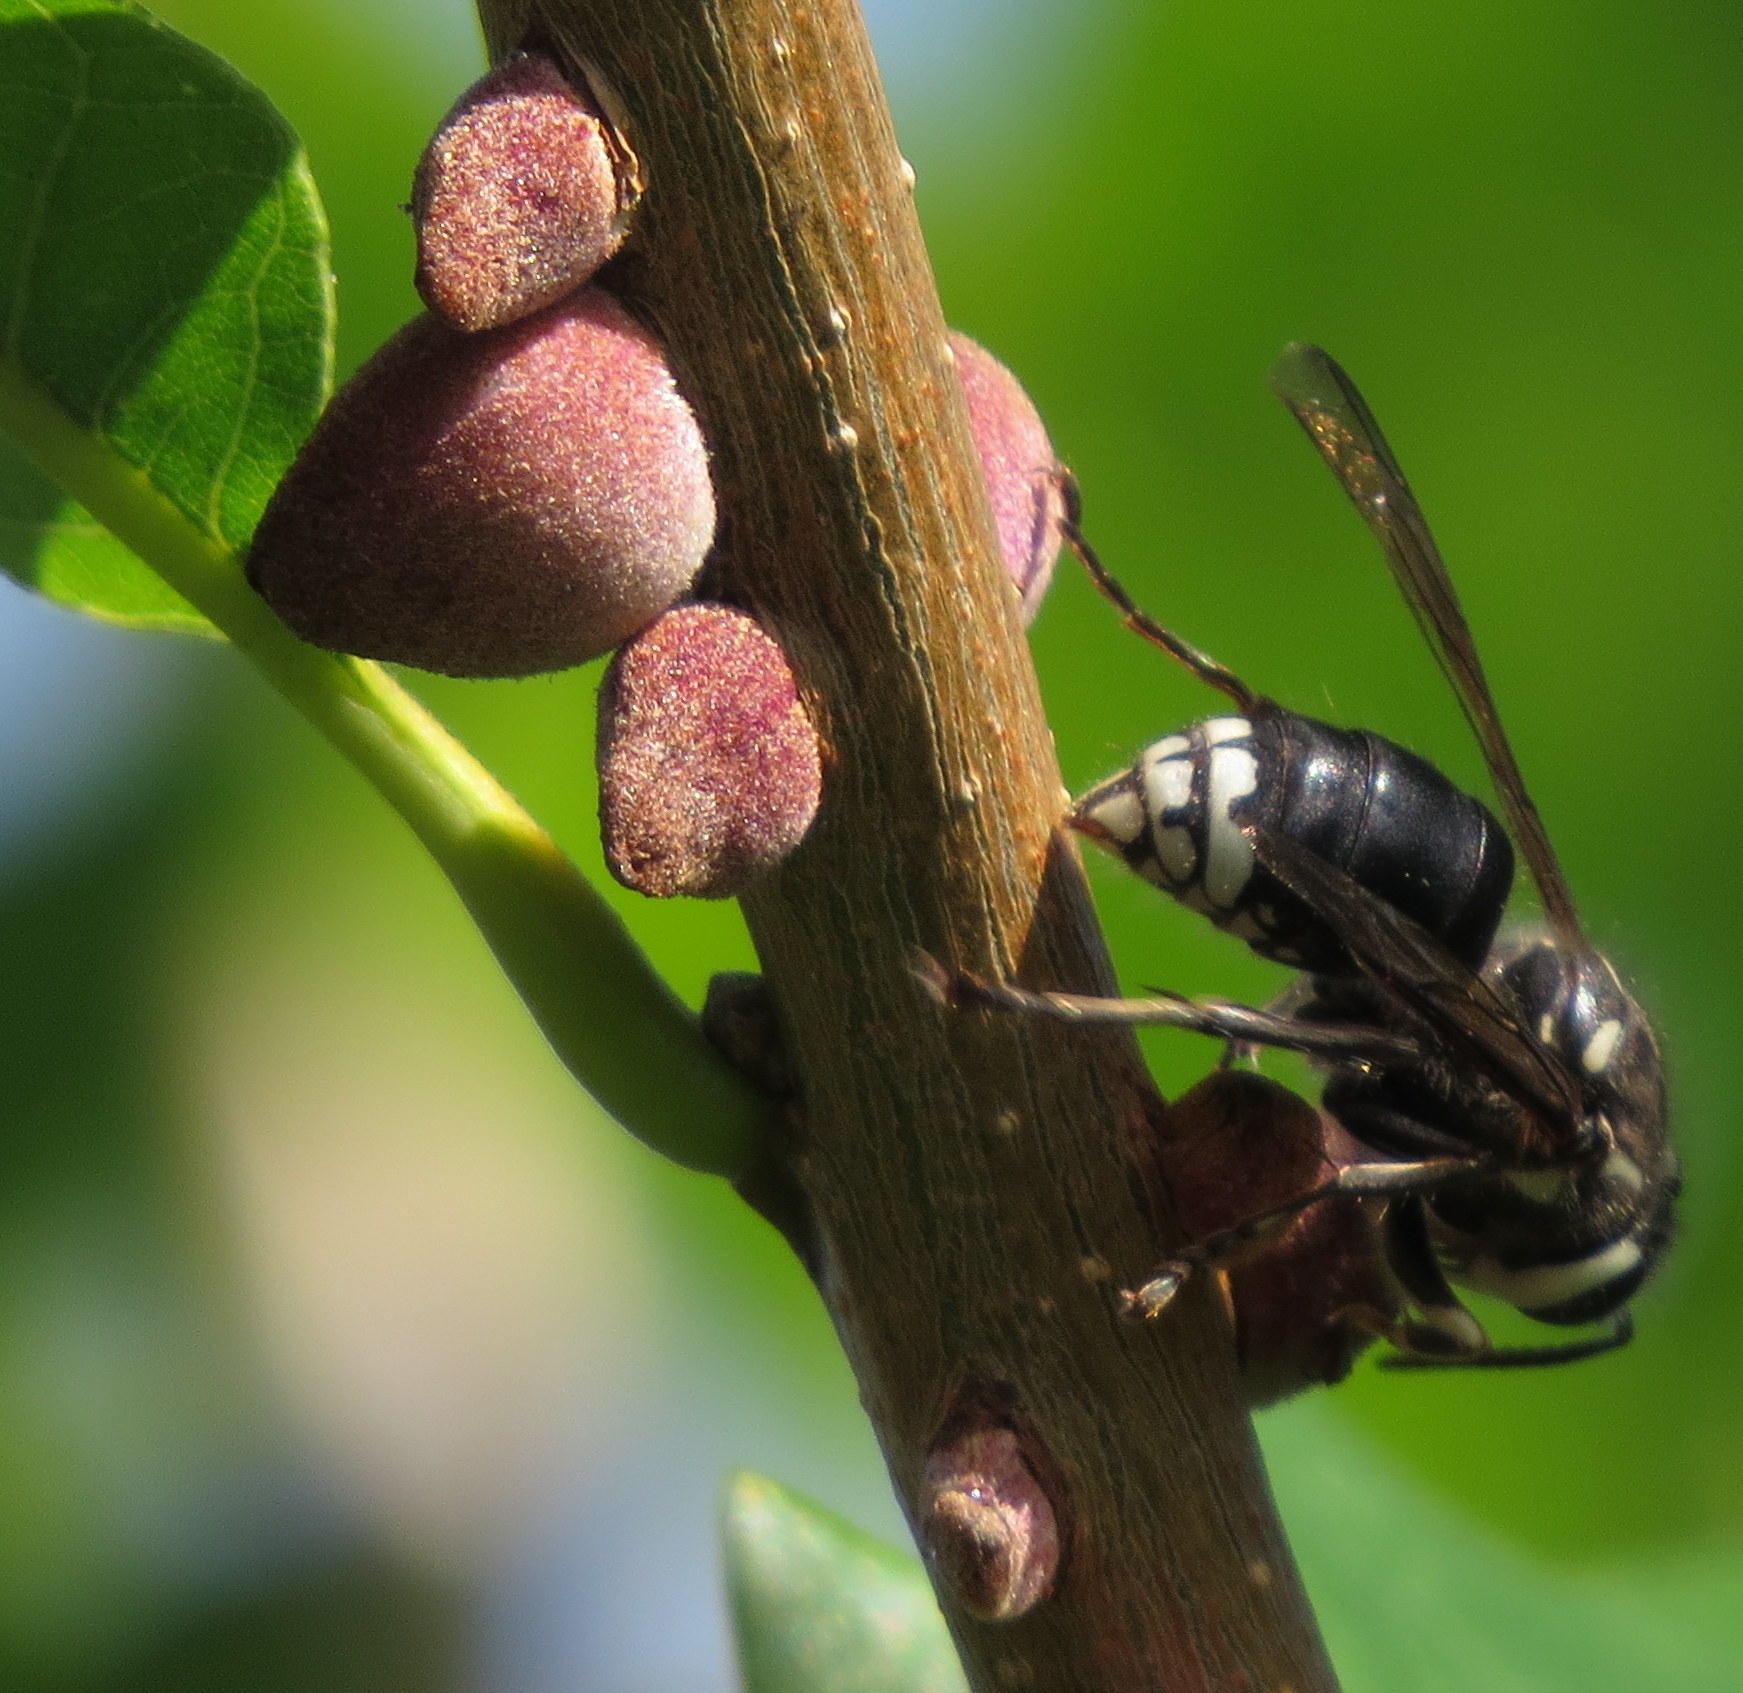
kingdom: Animalia
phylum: Arthropoda
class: Insecta
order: Hymenoptera
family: Vespidae
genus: Dolichovespula
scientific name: Dolichovespula maculata
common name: Bald-faced hornet
